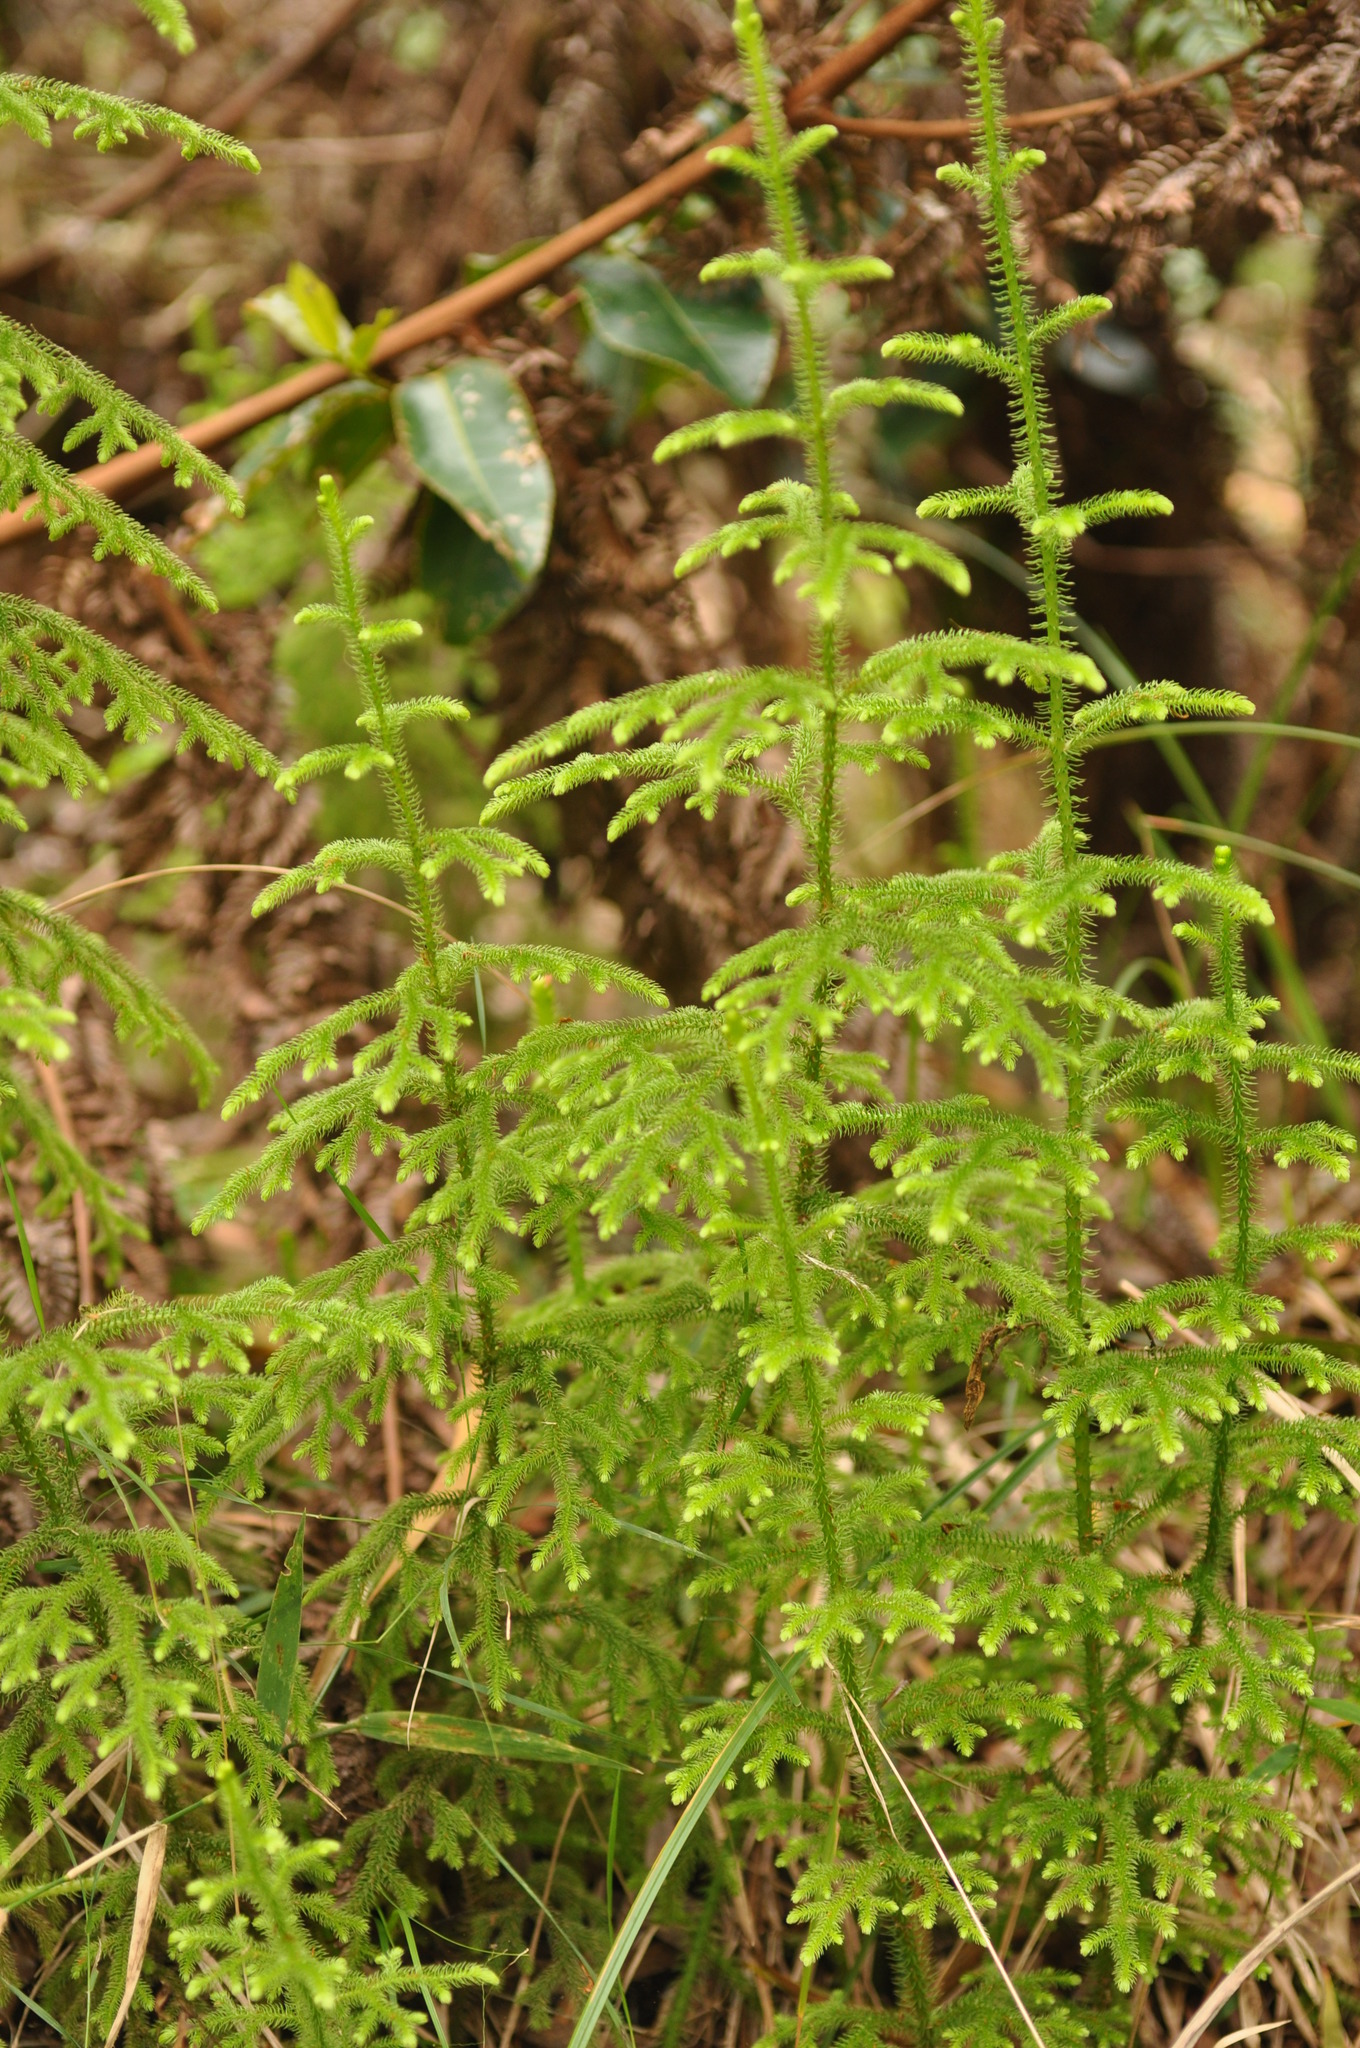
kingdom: Plantae
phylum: Tracheophyta
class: Lycopodiopsida
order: Lycopodiales
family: Lycopodiaceae
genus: Palhinhaea
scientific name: Palhinhaea cernua
